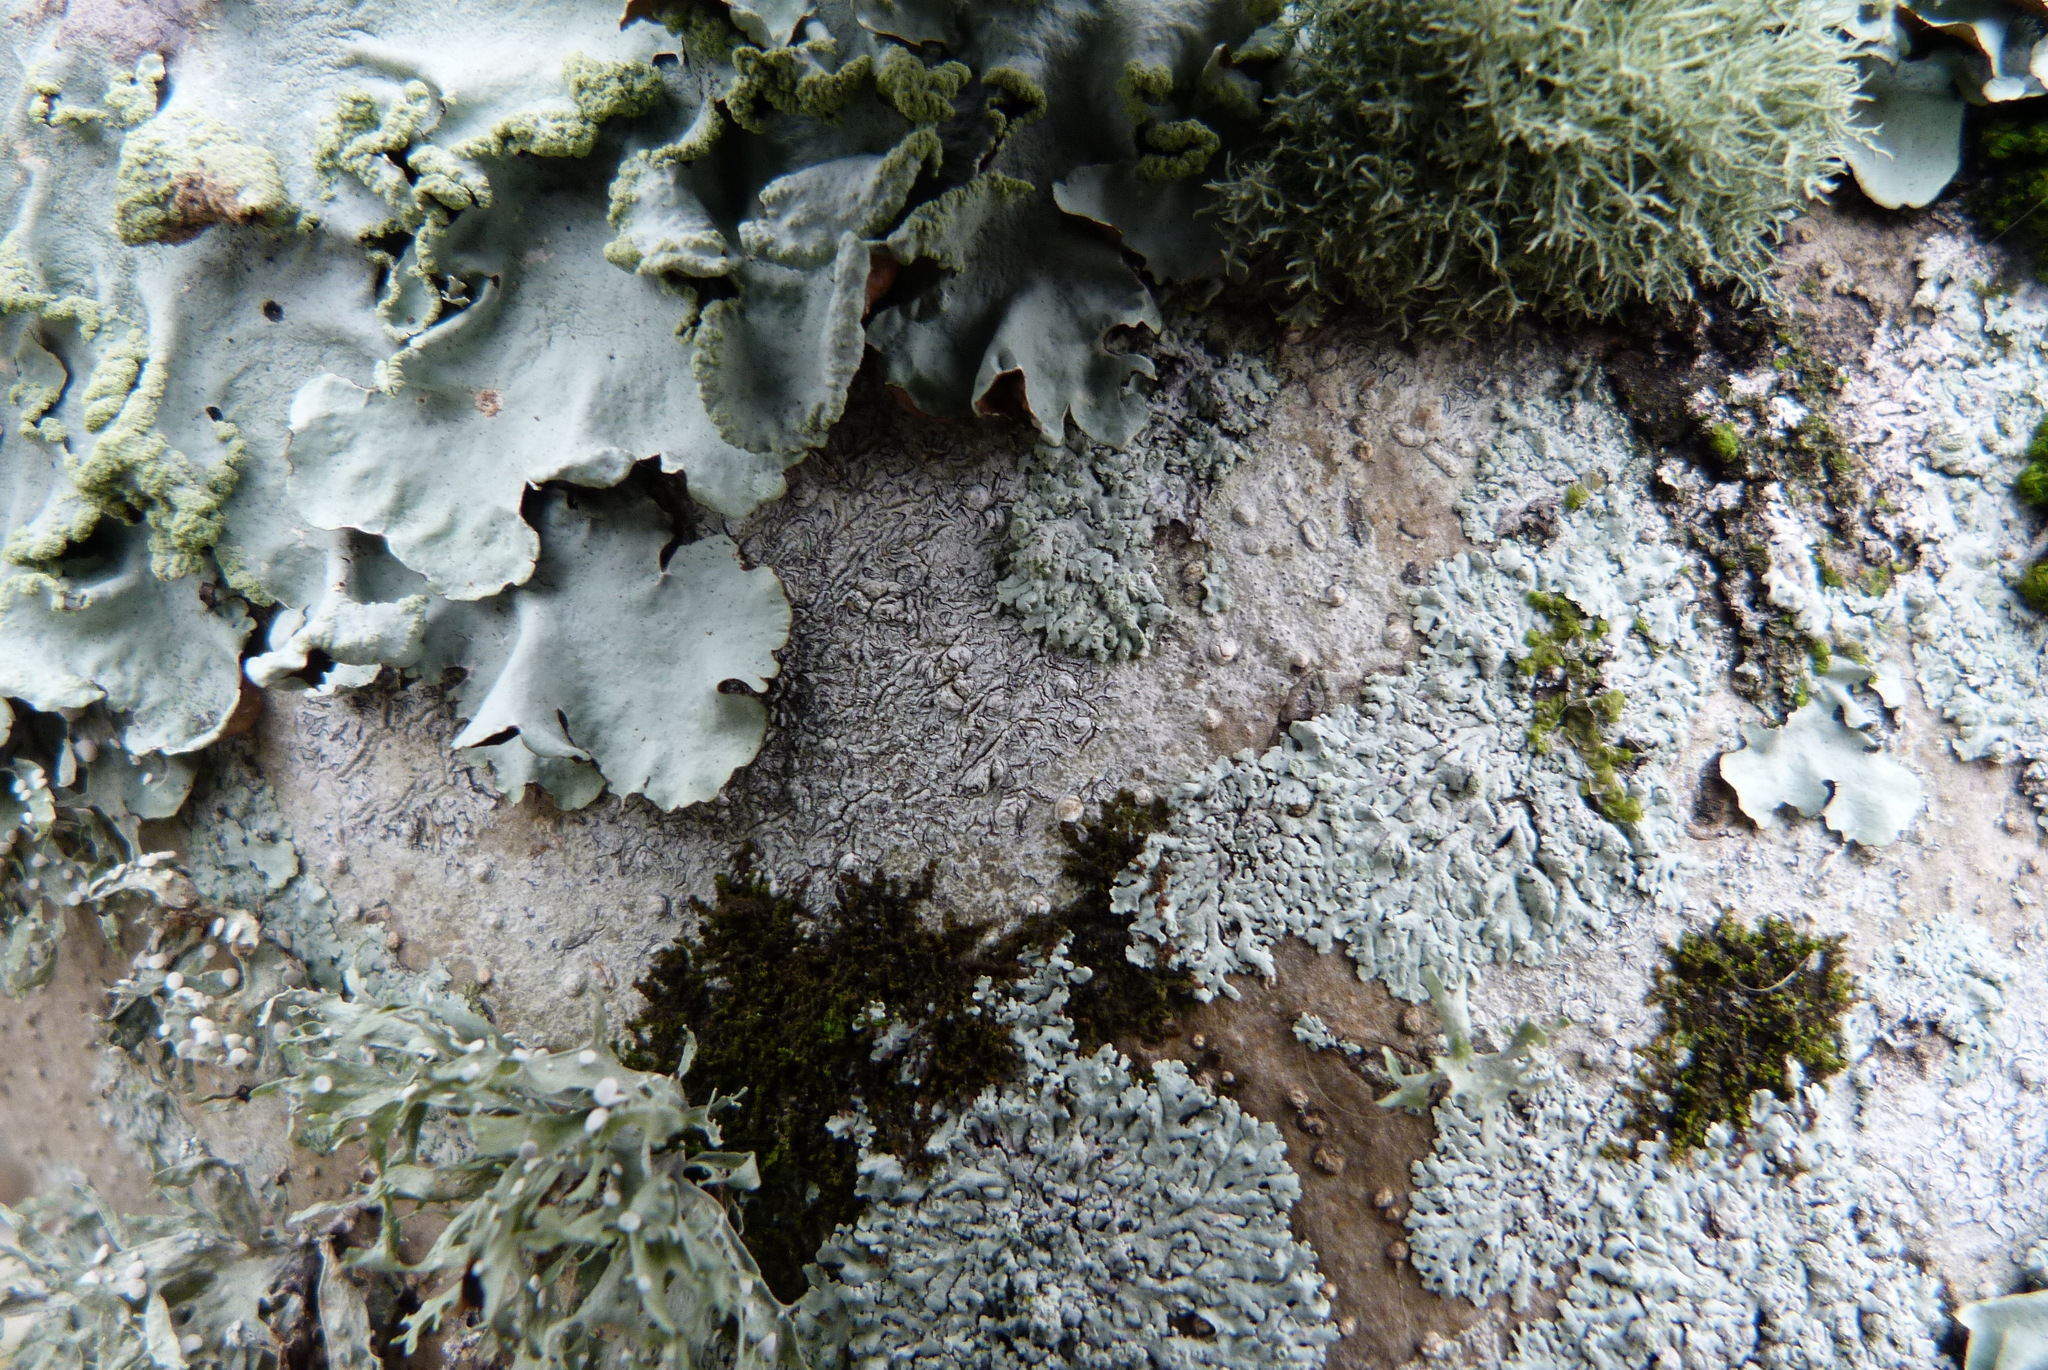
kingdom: Fungi
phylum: Ascomycota
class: Lecanoromycetes
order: Ostropales
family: Graphidaceae
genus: Graphis
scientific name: Graphis librata
